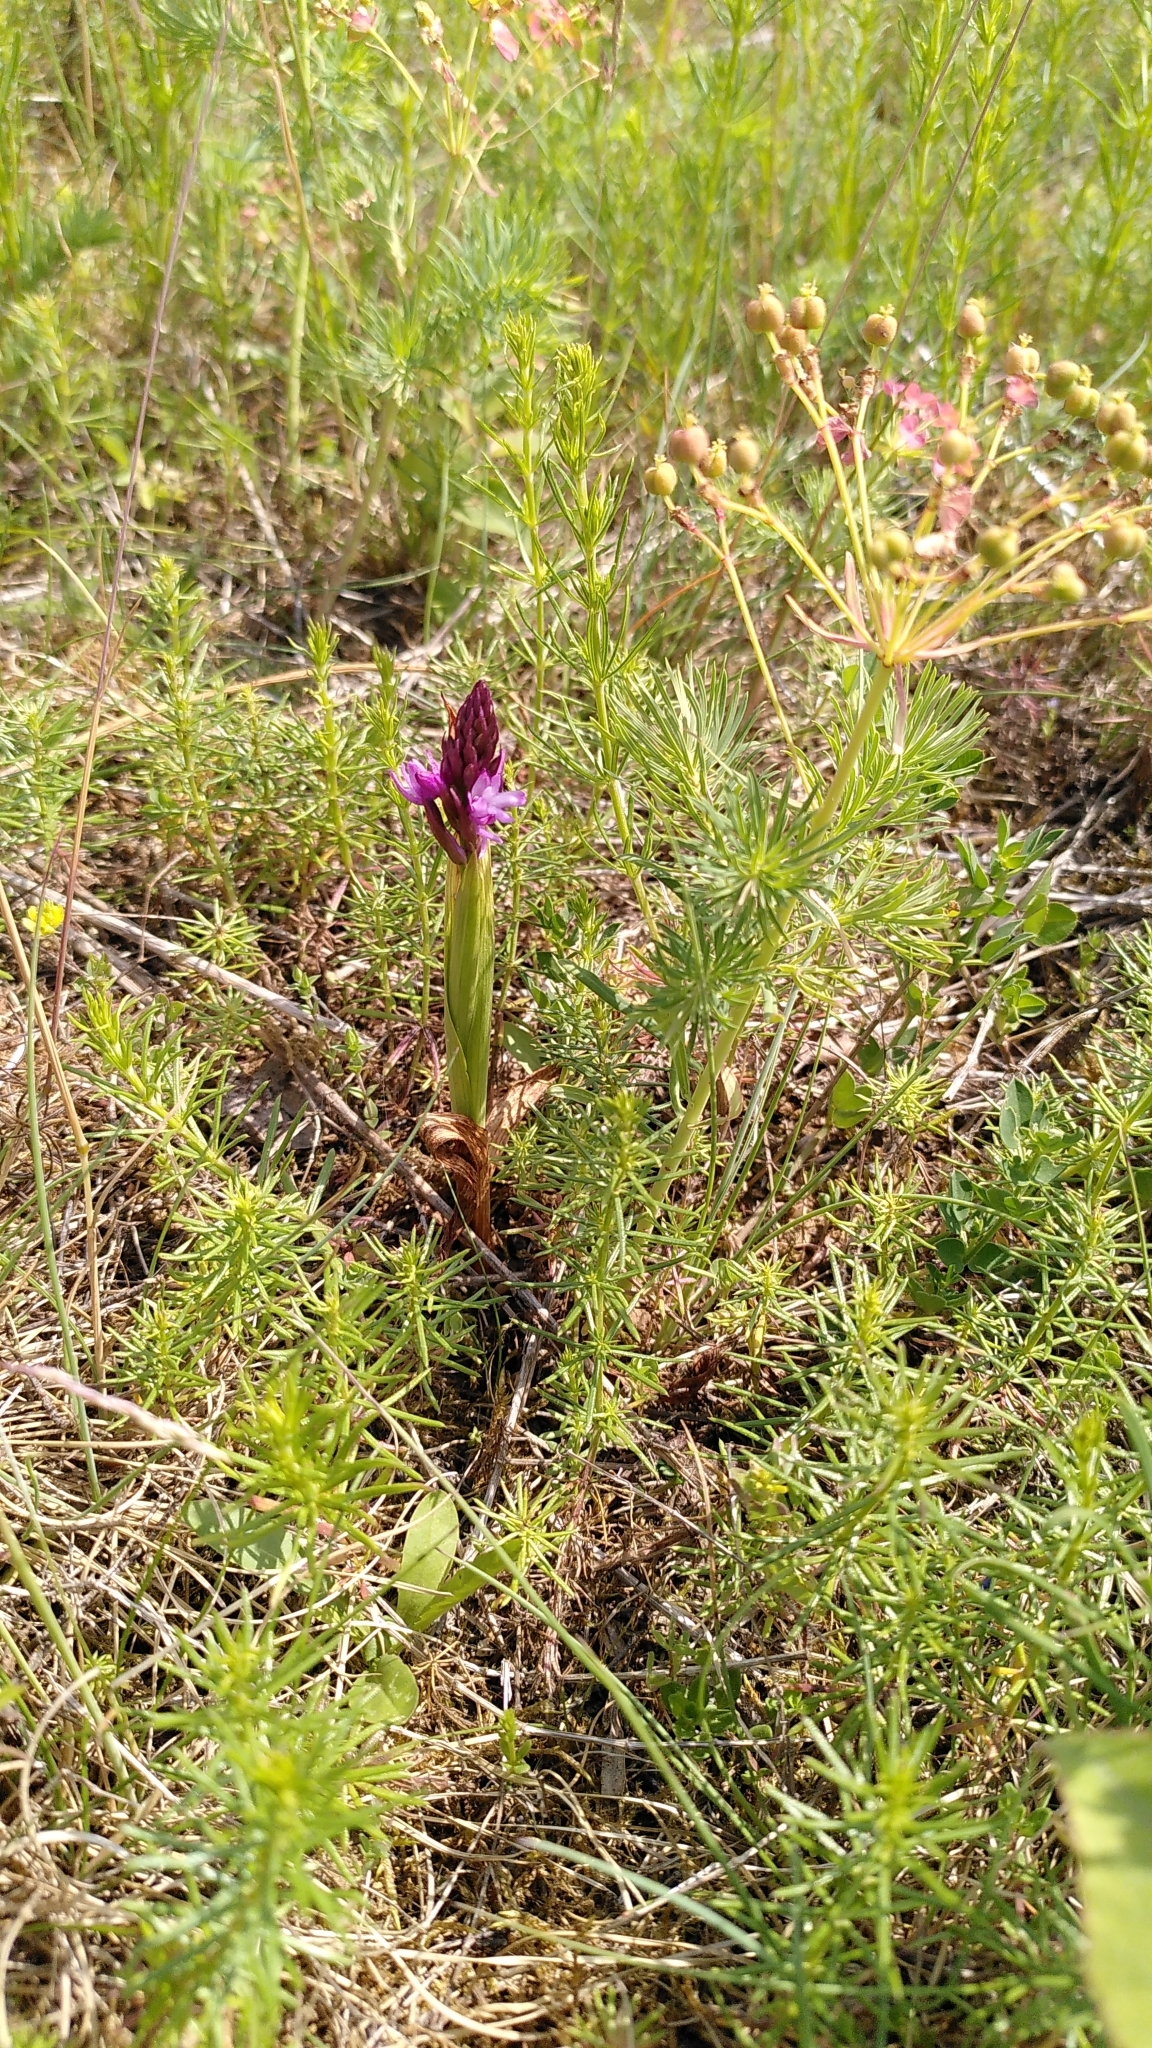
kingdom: Plantae
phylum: Tracheophyta
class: Liliopsida
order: Asparagales
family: Orchidaceae
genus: Anacamptis
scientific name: Anacamptis pyramidalis
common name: Pyramidal orchid
